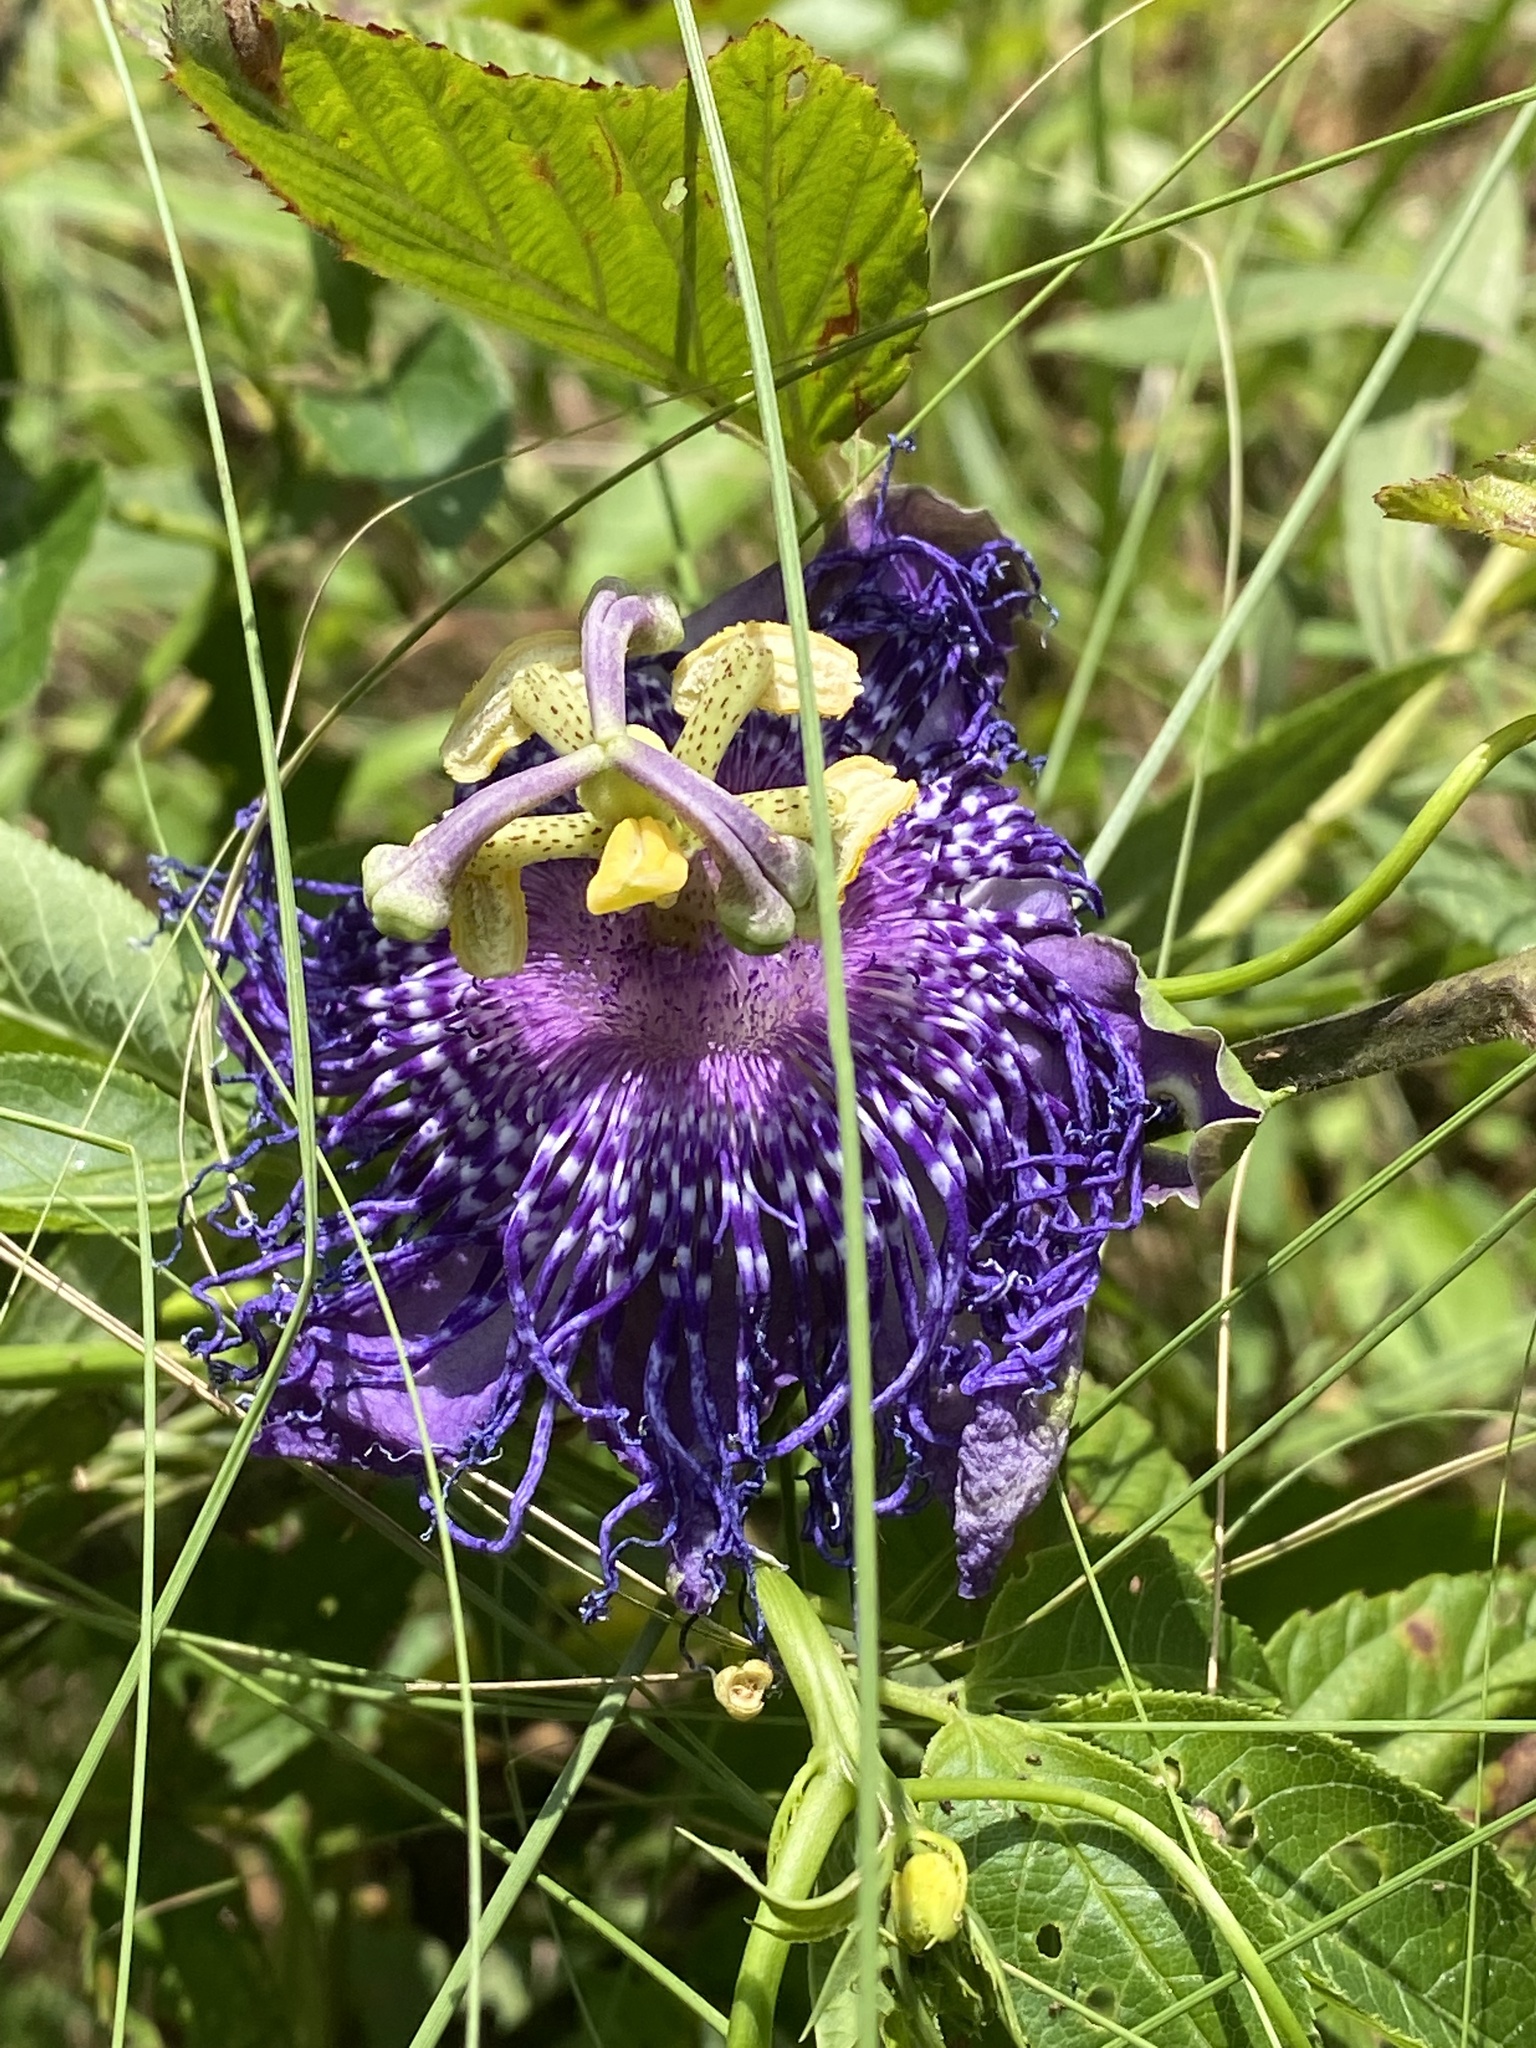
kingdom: Plantae
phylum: Tracheophyta
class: Magnoliopsida
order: Malpighiales
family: Passifloraceae
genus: Passiflora
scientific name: Passiflora
